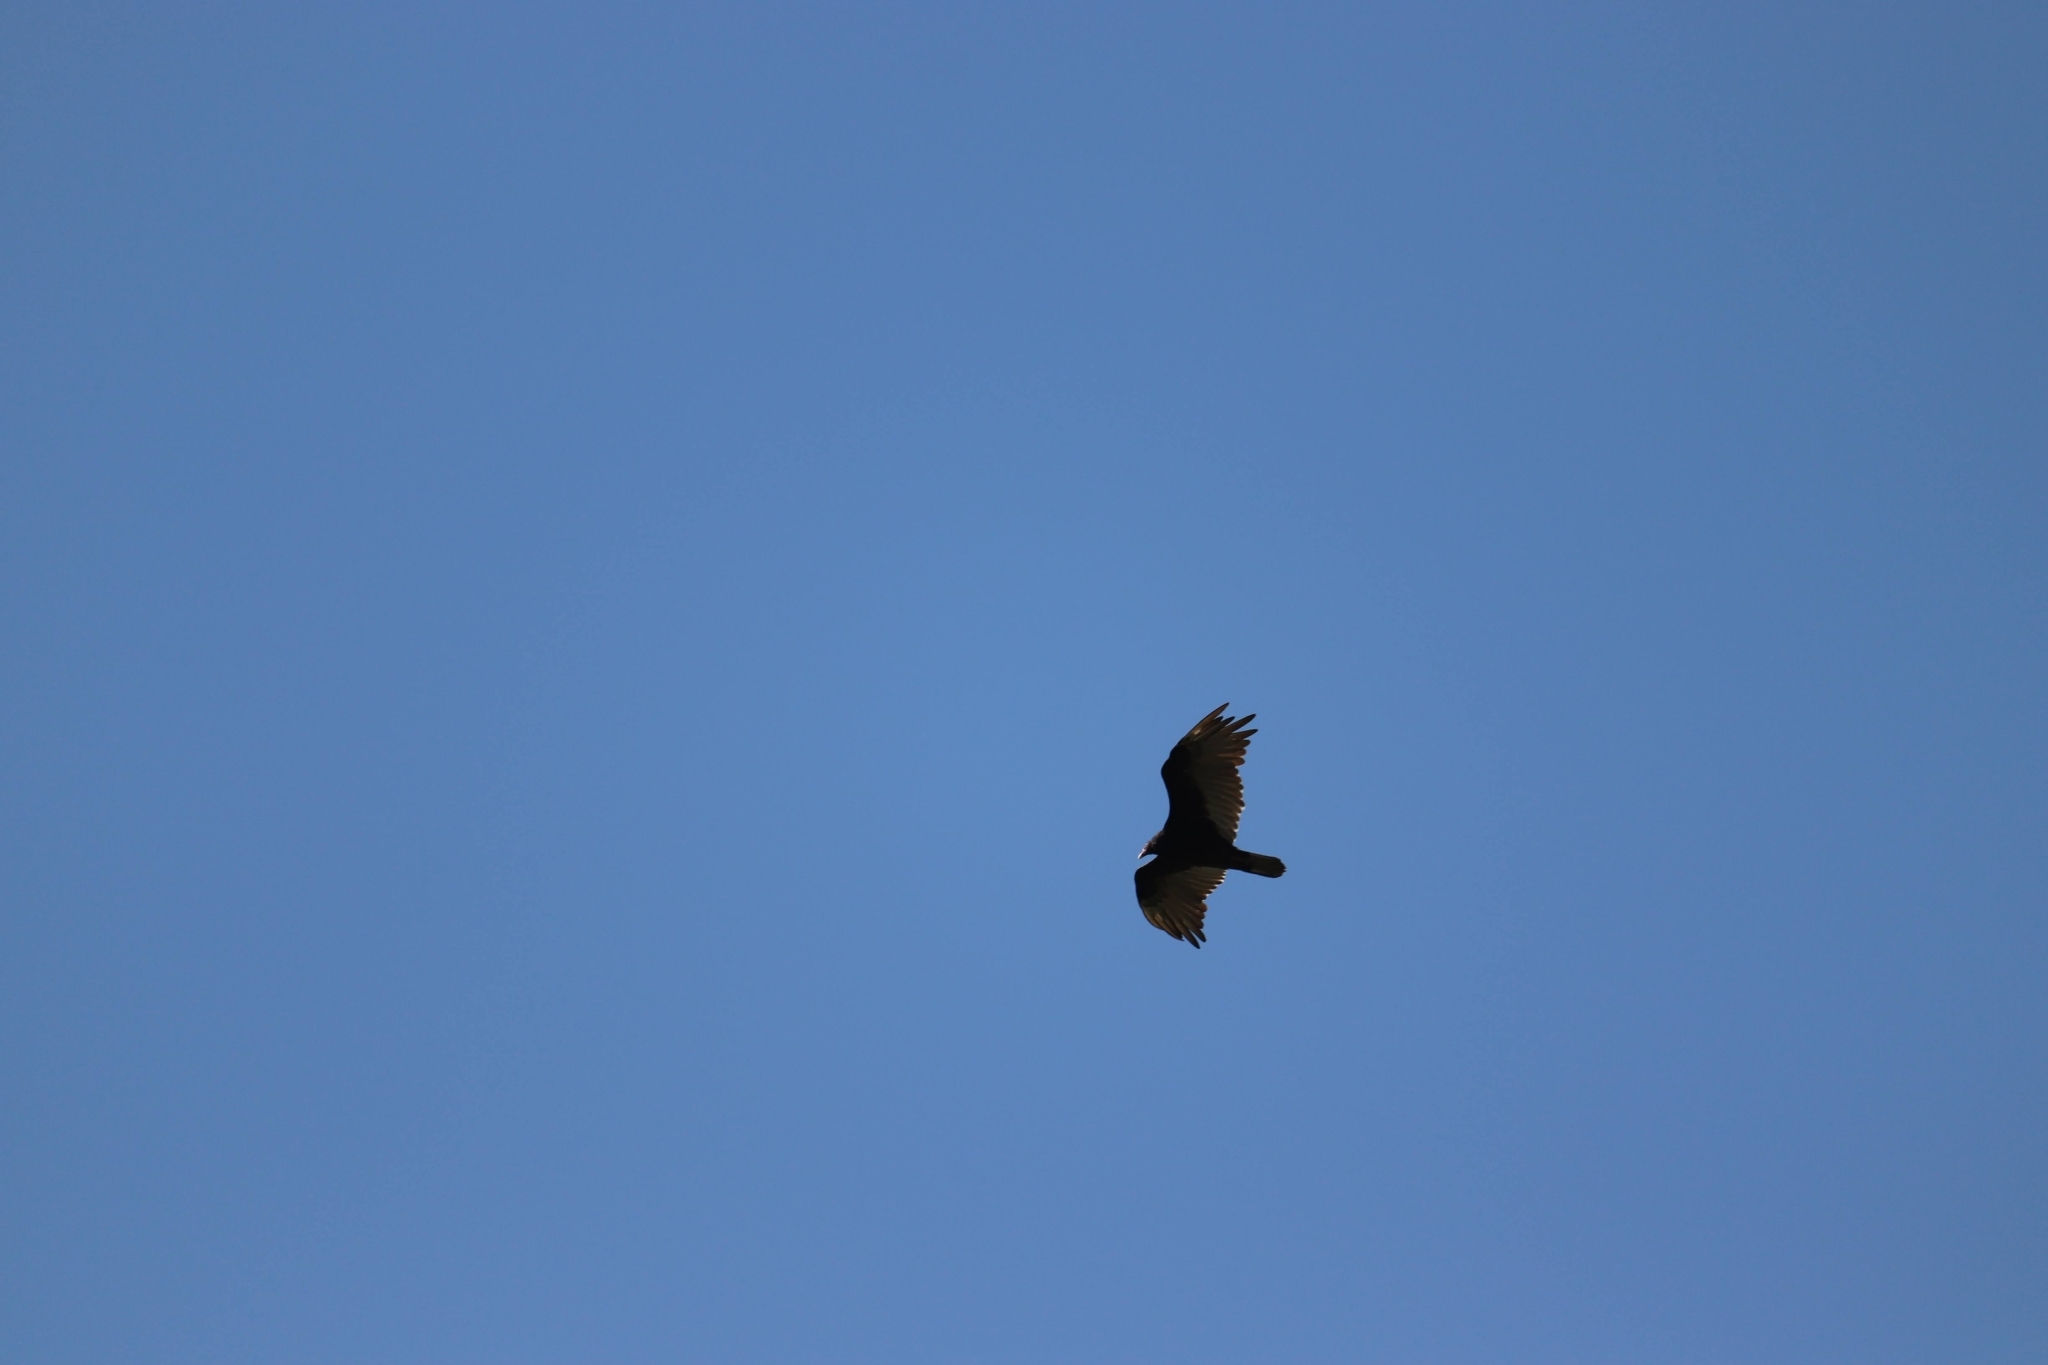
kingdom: Animalia
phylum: Chordata
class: Aves
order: Accipitriformes
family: Cathartidae
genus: Cathartes
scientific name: Cathartes aura
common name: Turkey vulture
